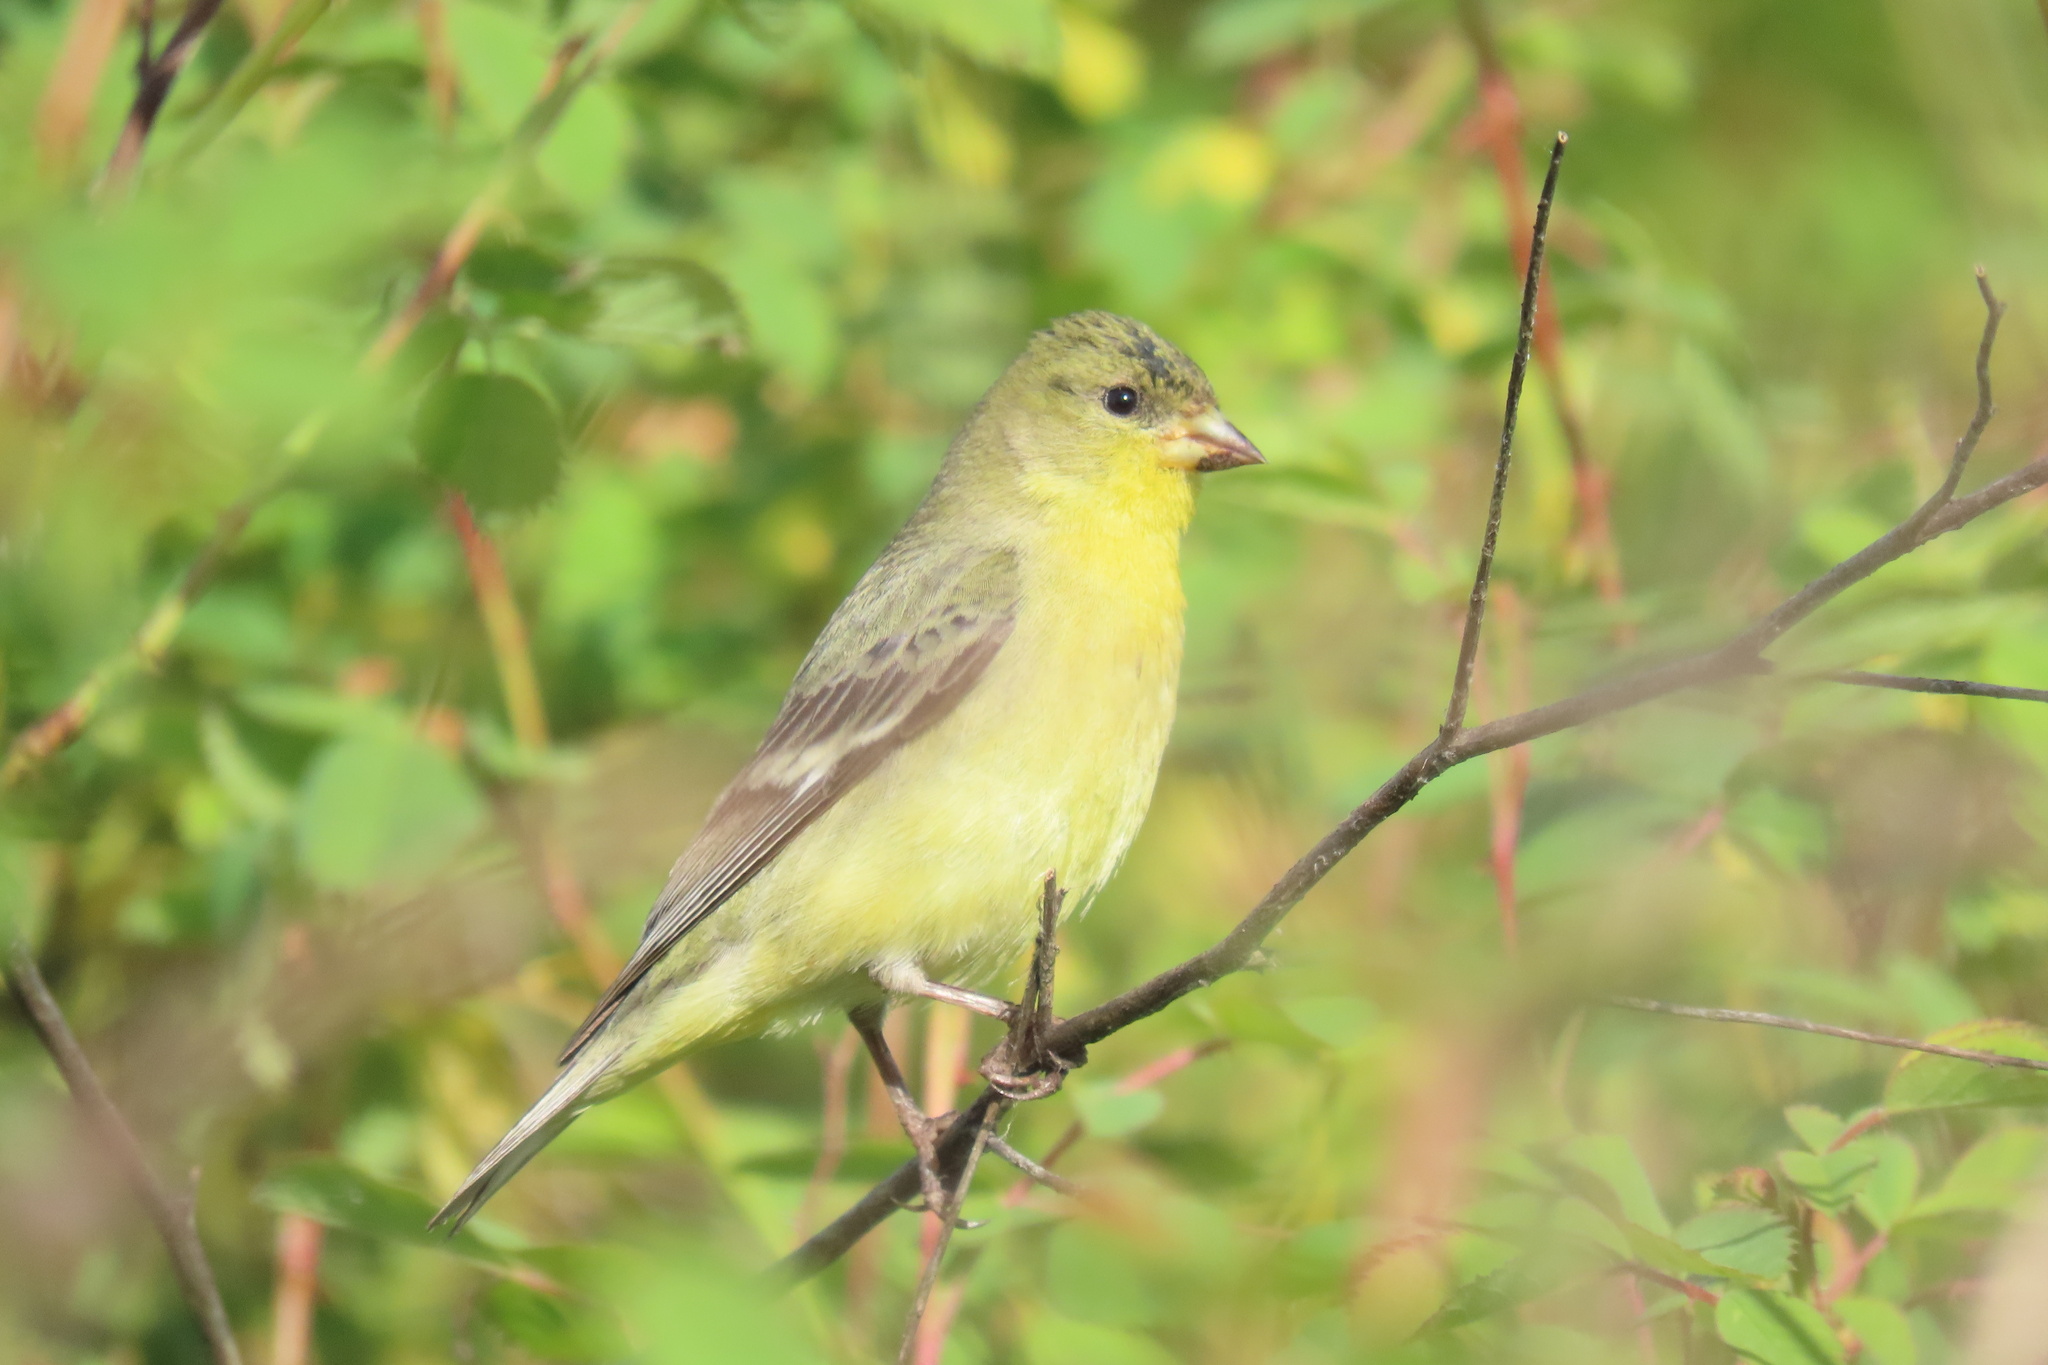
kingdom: Animalia
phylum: Chordata
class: Aves
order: Passeriformes
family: Fringillidae
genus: Spinus
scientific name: Spinus psaltria
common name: Lesser goldfinch
